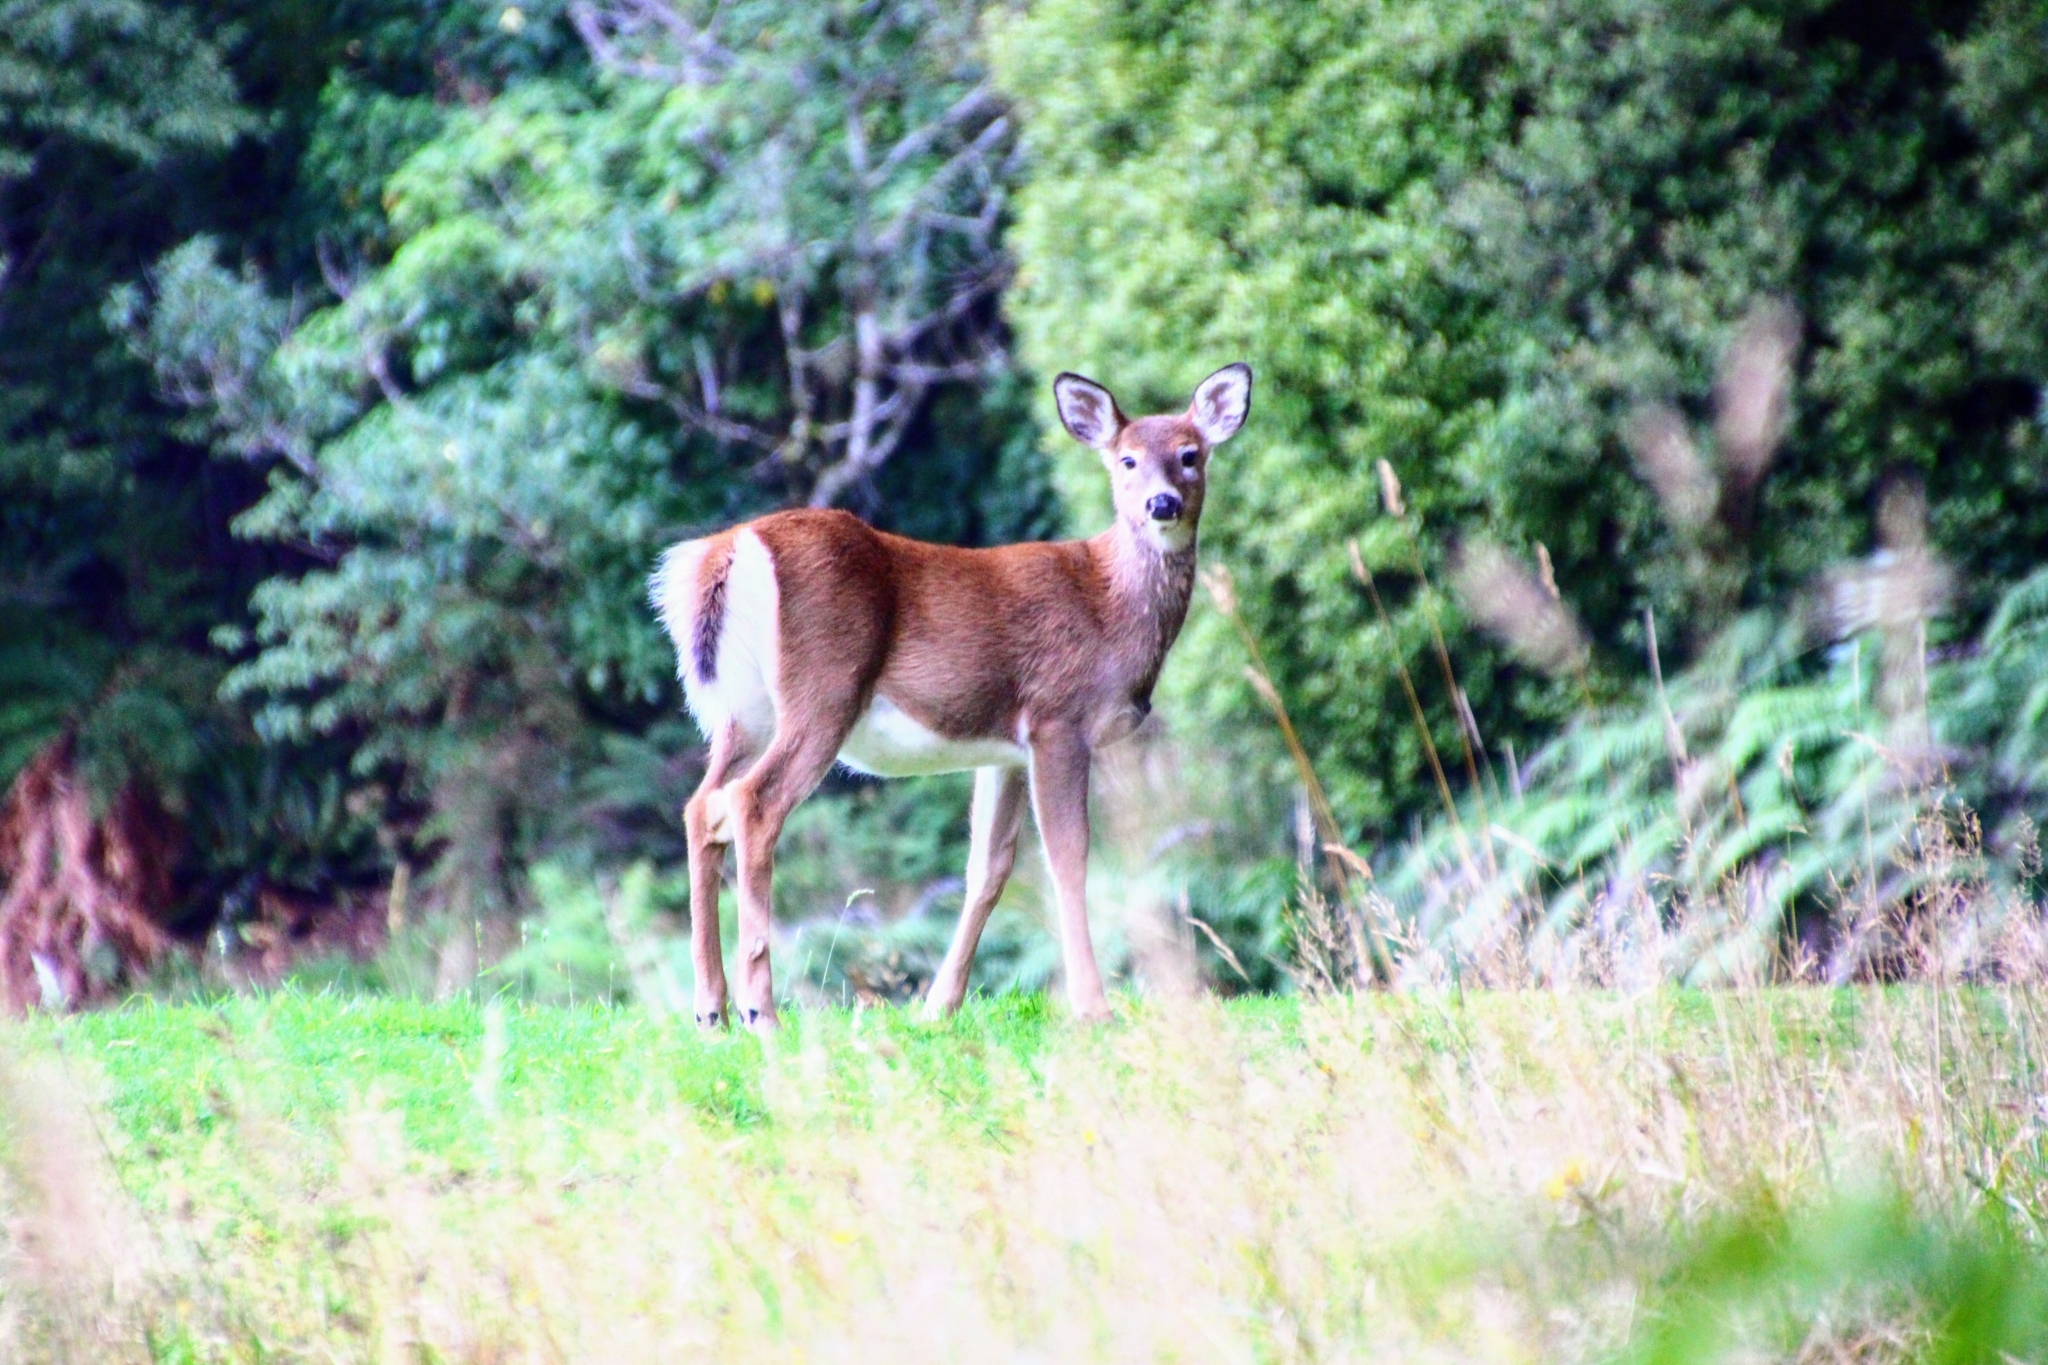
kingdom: Animalia
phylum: Chordata
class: Mammalia
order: Artiodactyla
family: Cervidae
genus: Cervus
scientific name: Cervus elaphus
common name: Red deer
